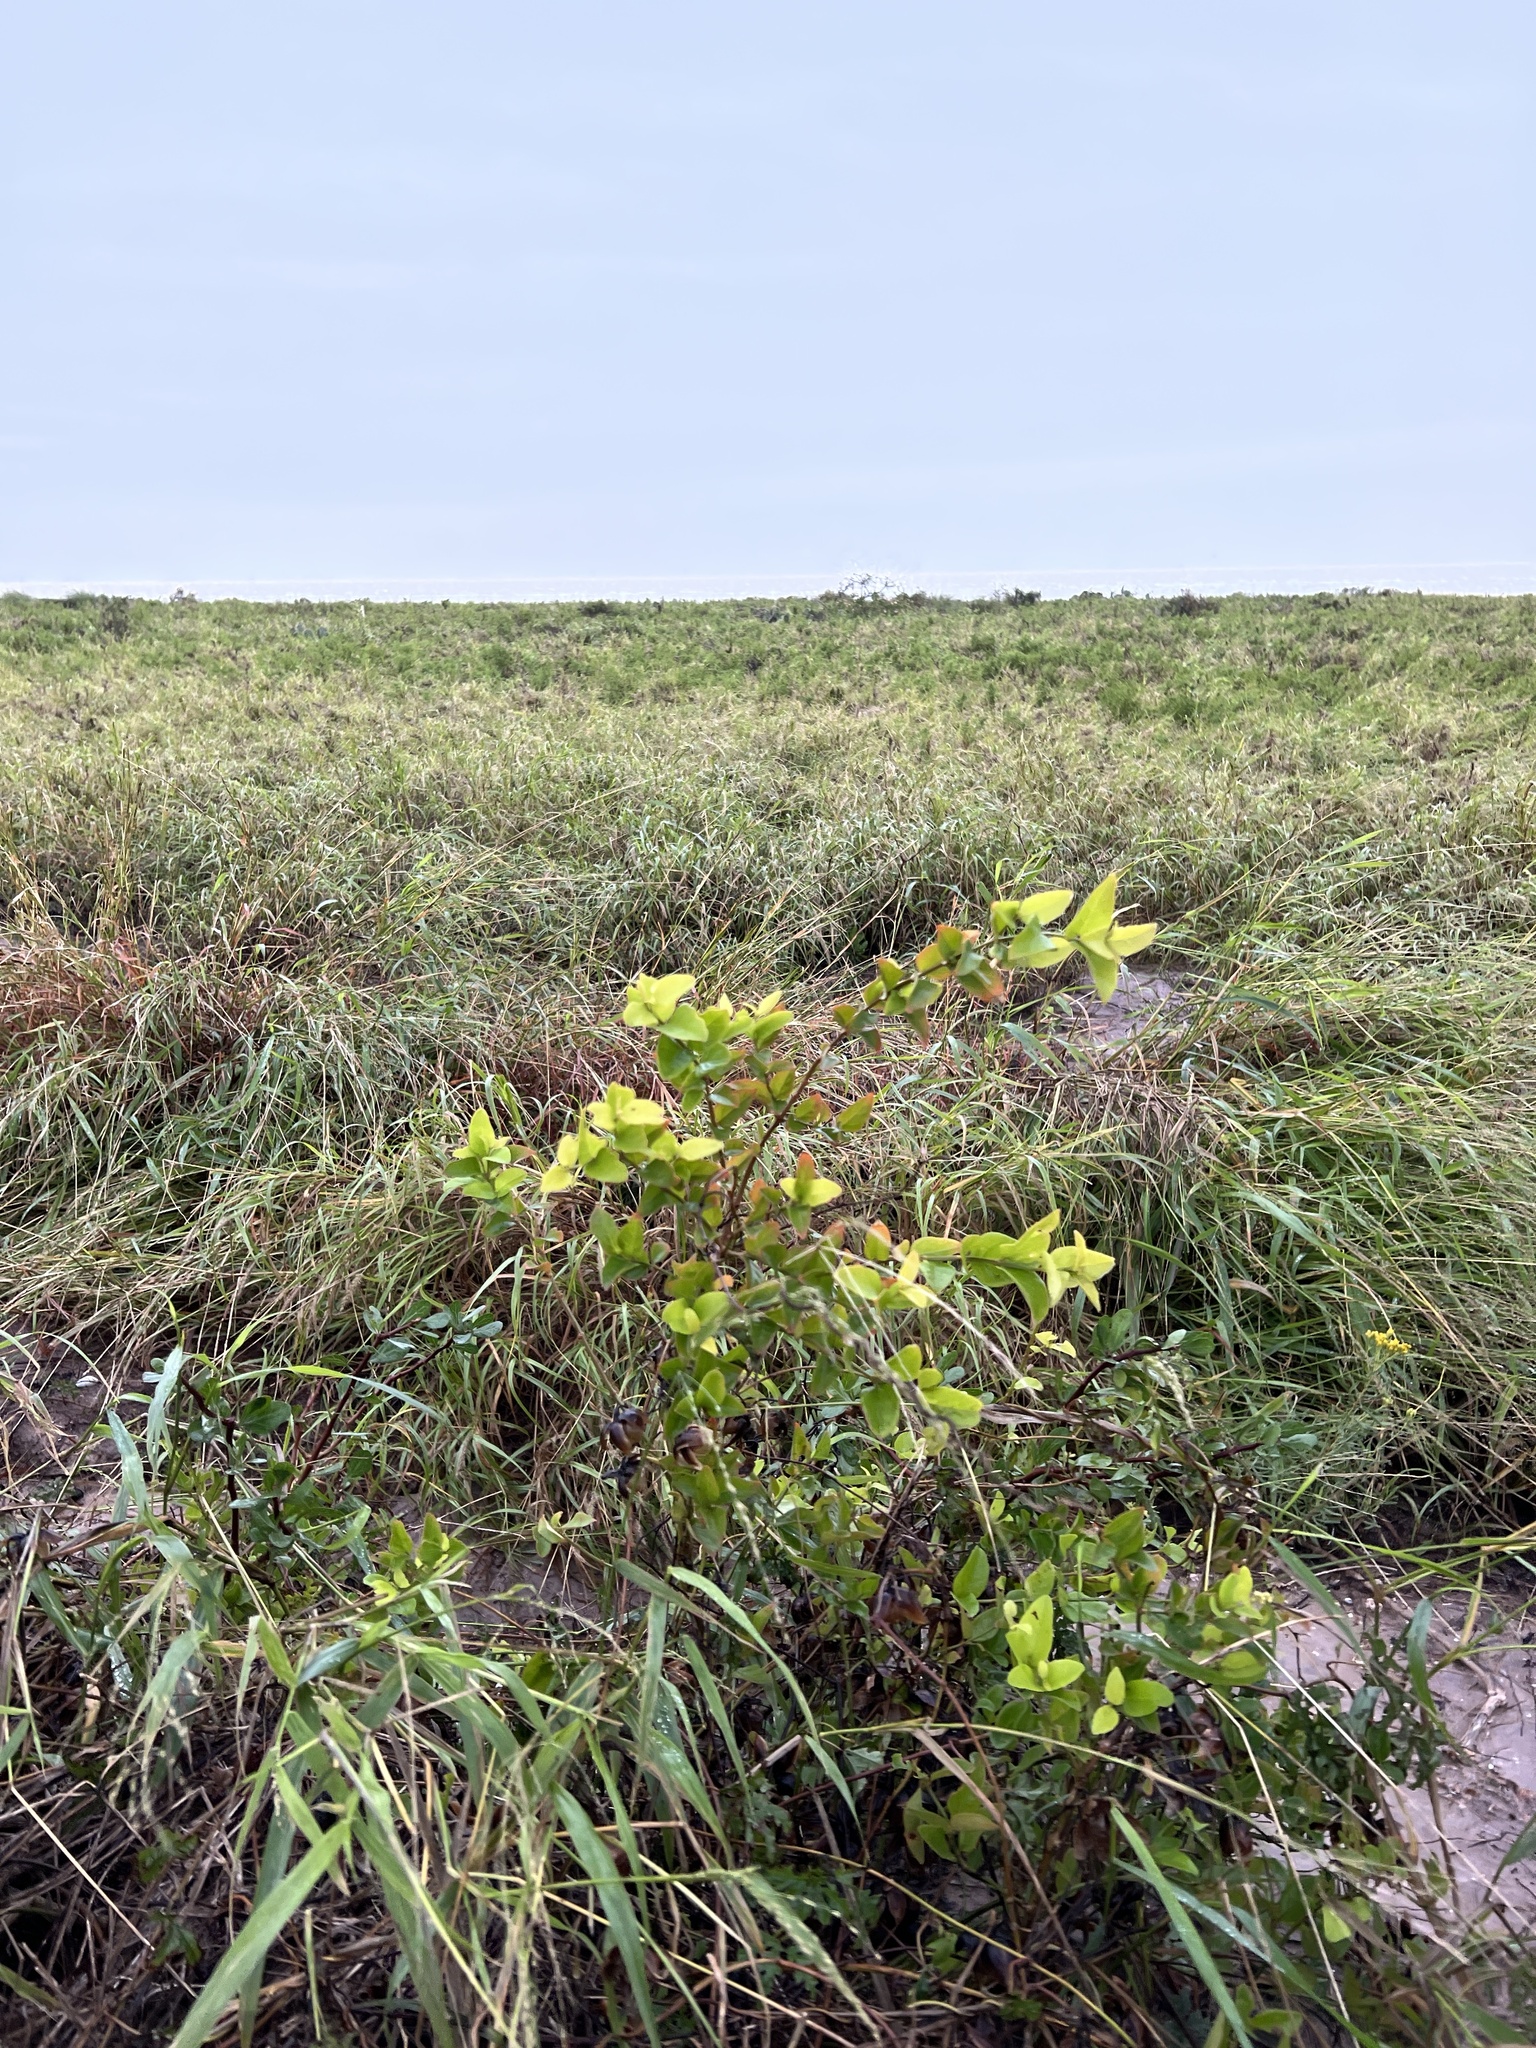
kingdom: Plantae
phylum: Tracheophyta
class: Magnoliopsida
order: Lamiales
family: Verbenaceae
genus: Citharexylum
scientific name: Citharexylum berlandieri
